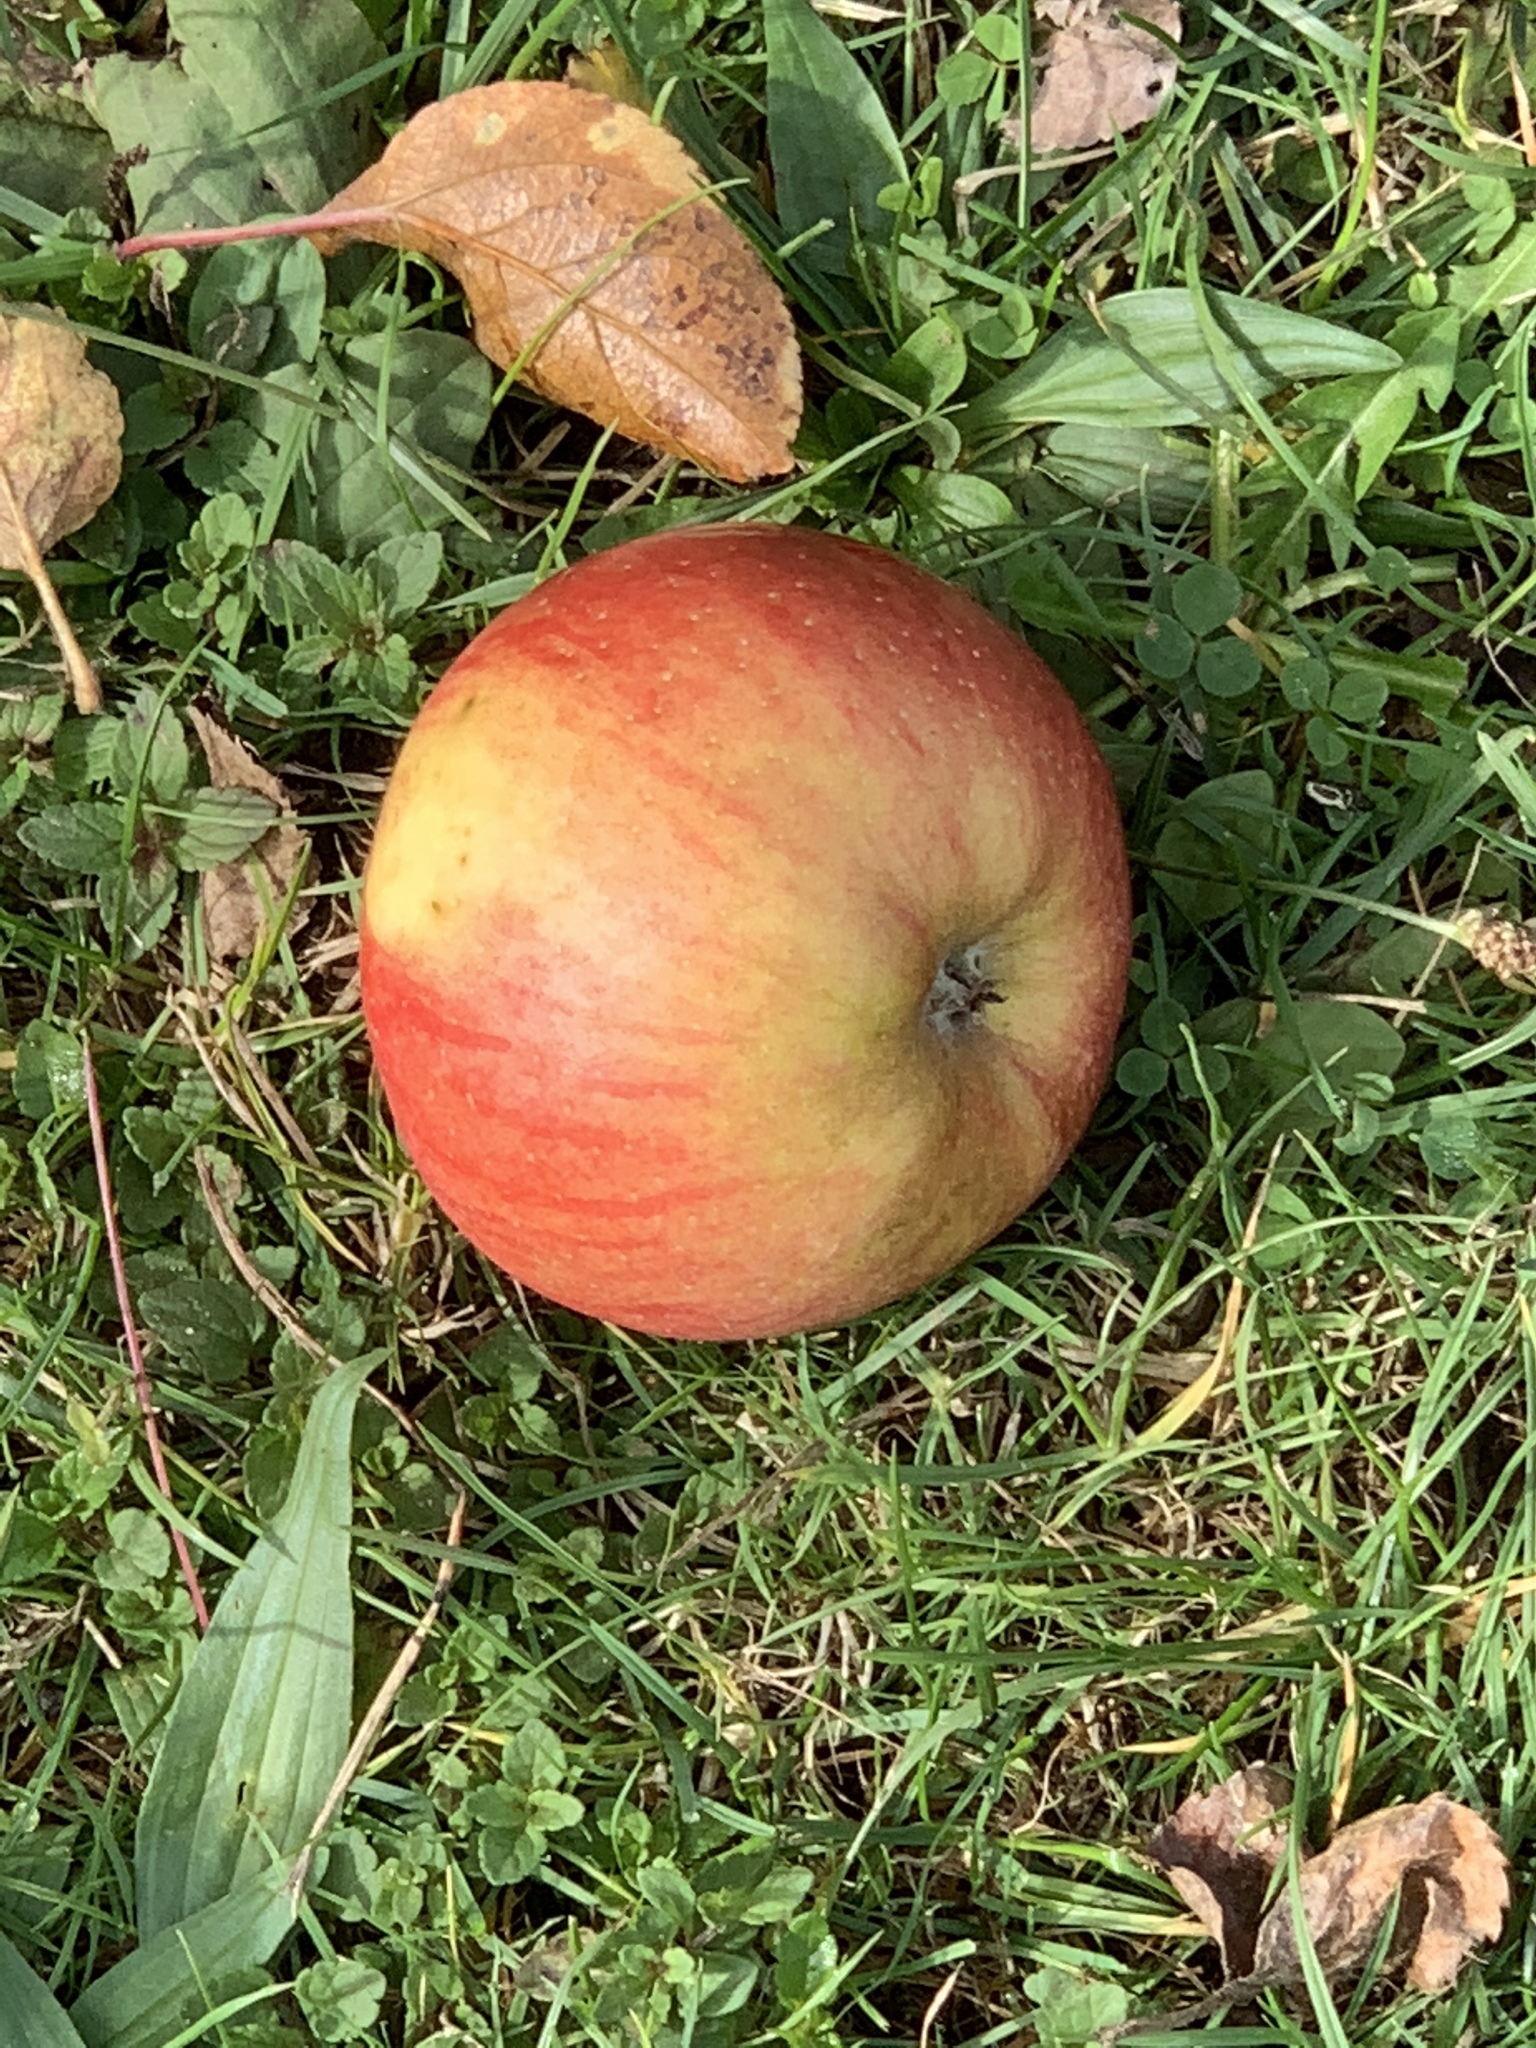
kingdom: Plantae
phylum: Tracheophyta
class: Magnoliopsida
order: Rosales
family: Rosaceae
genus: Malus
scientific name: Malus domestica
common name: Apple
